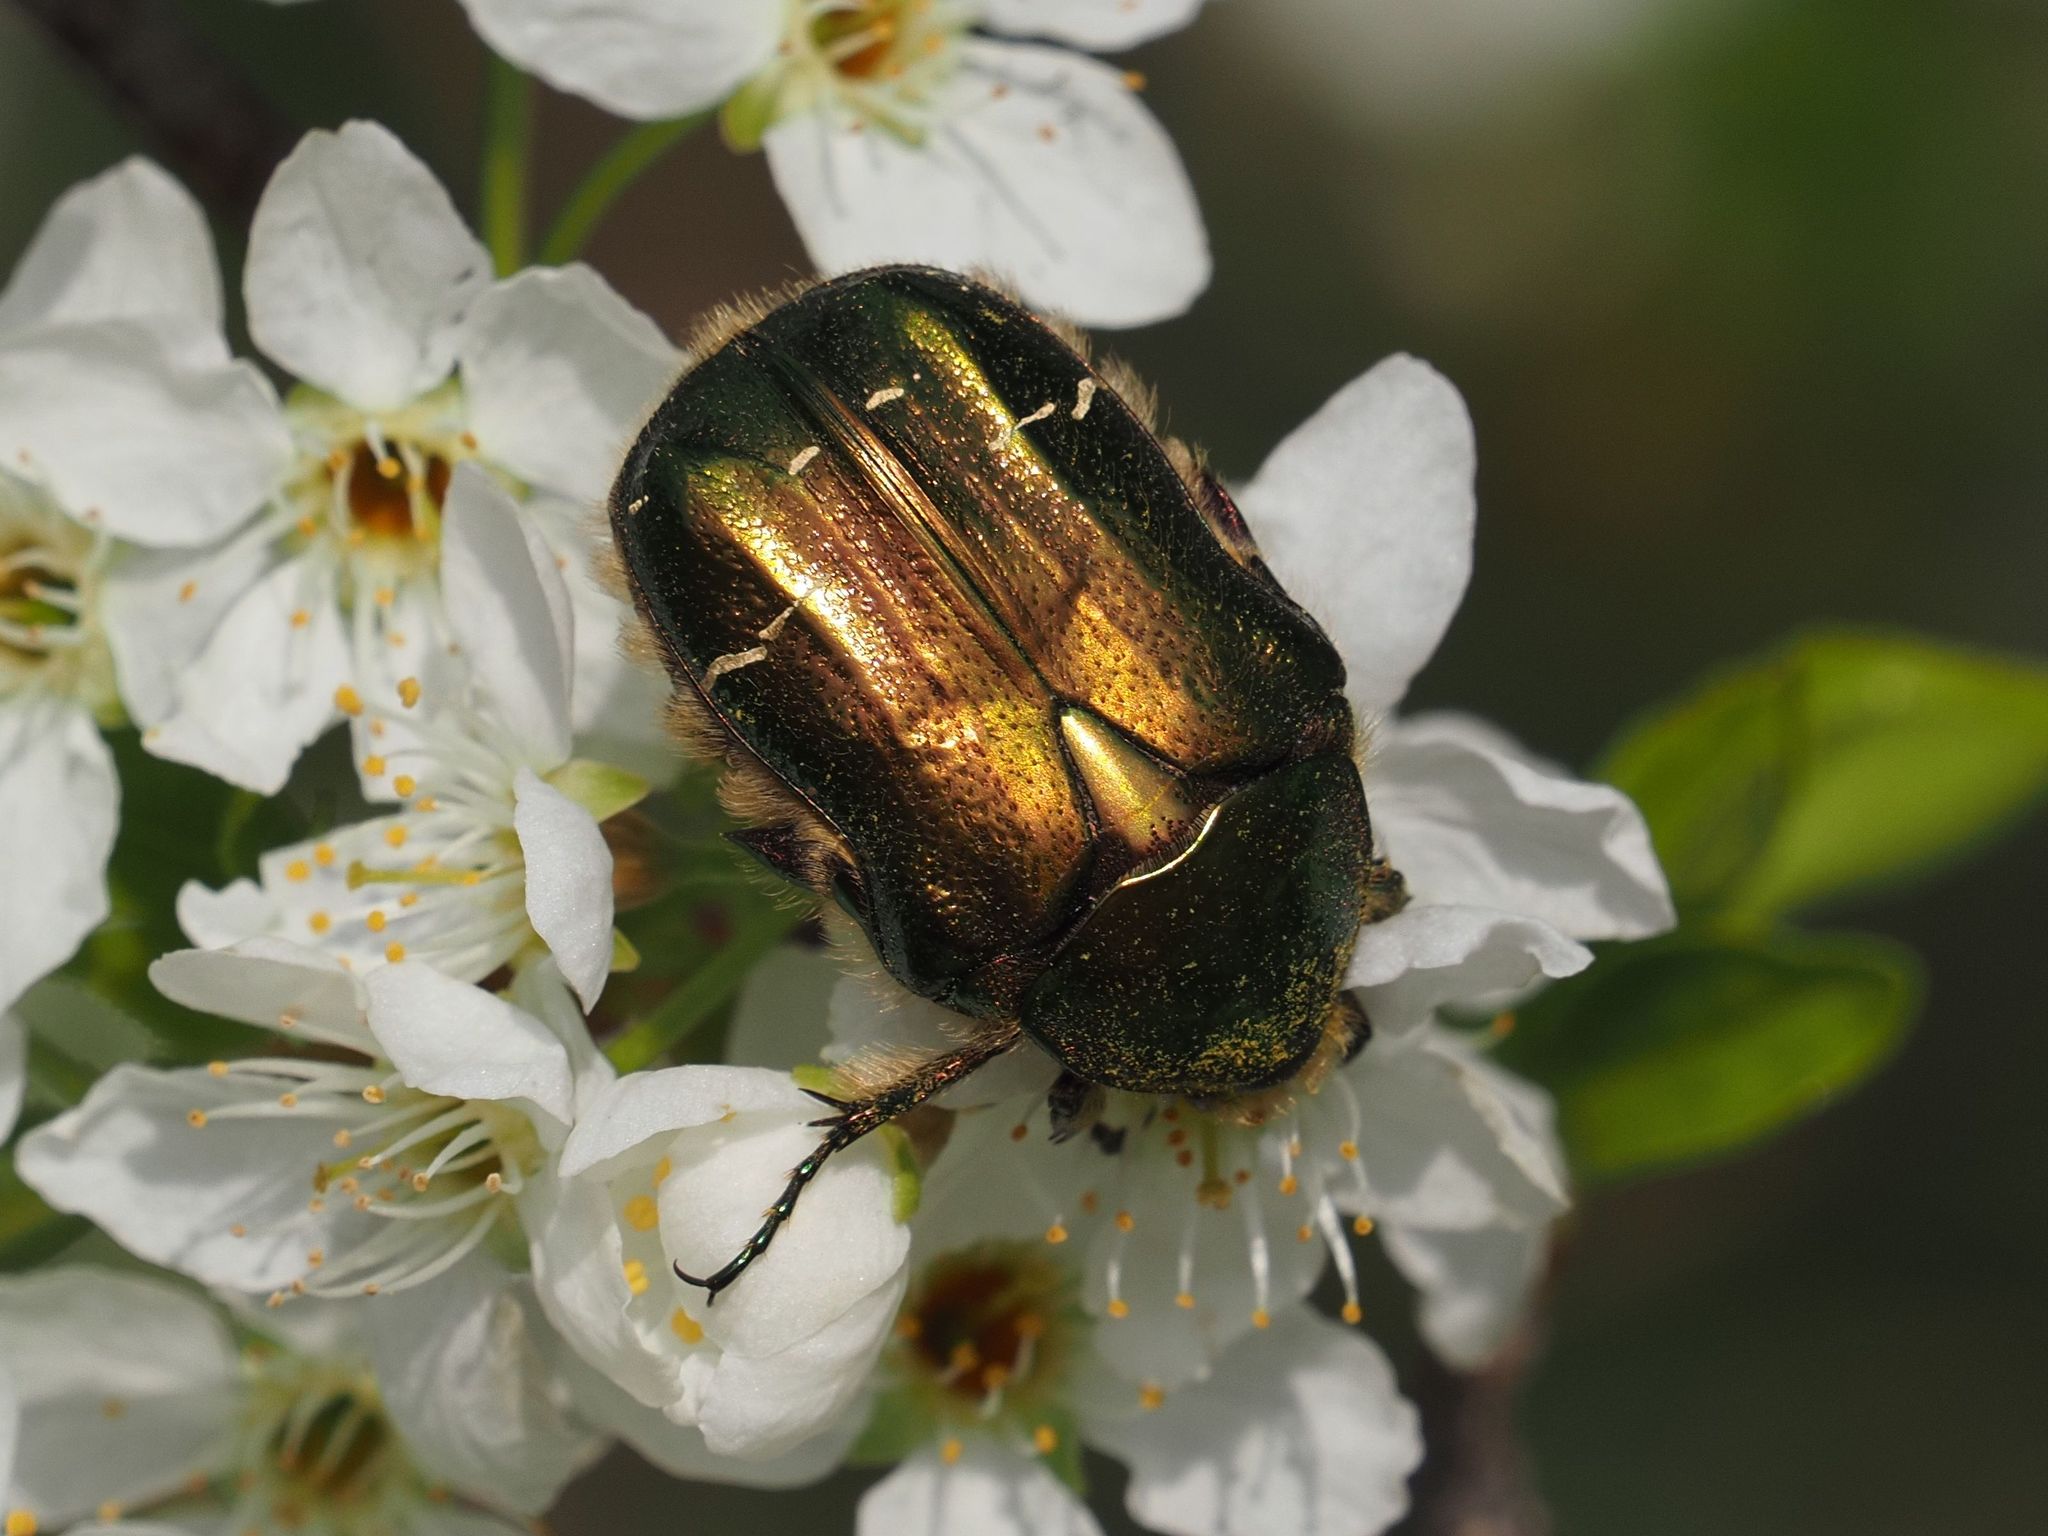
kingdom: Animalia
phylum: Arthropoda
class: Insecta
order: Coleoptera
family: Scarabaeidae
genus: Cetonia
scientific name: Cetonia aurata
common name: Rose chafer
